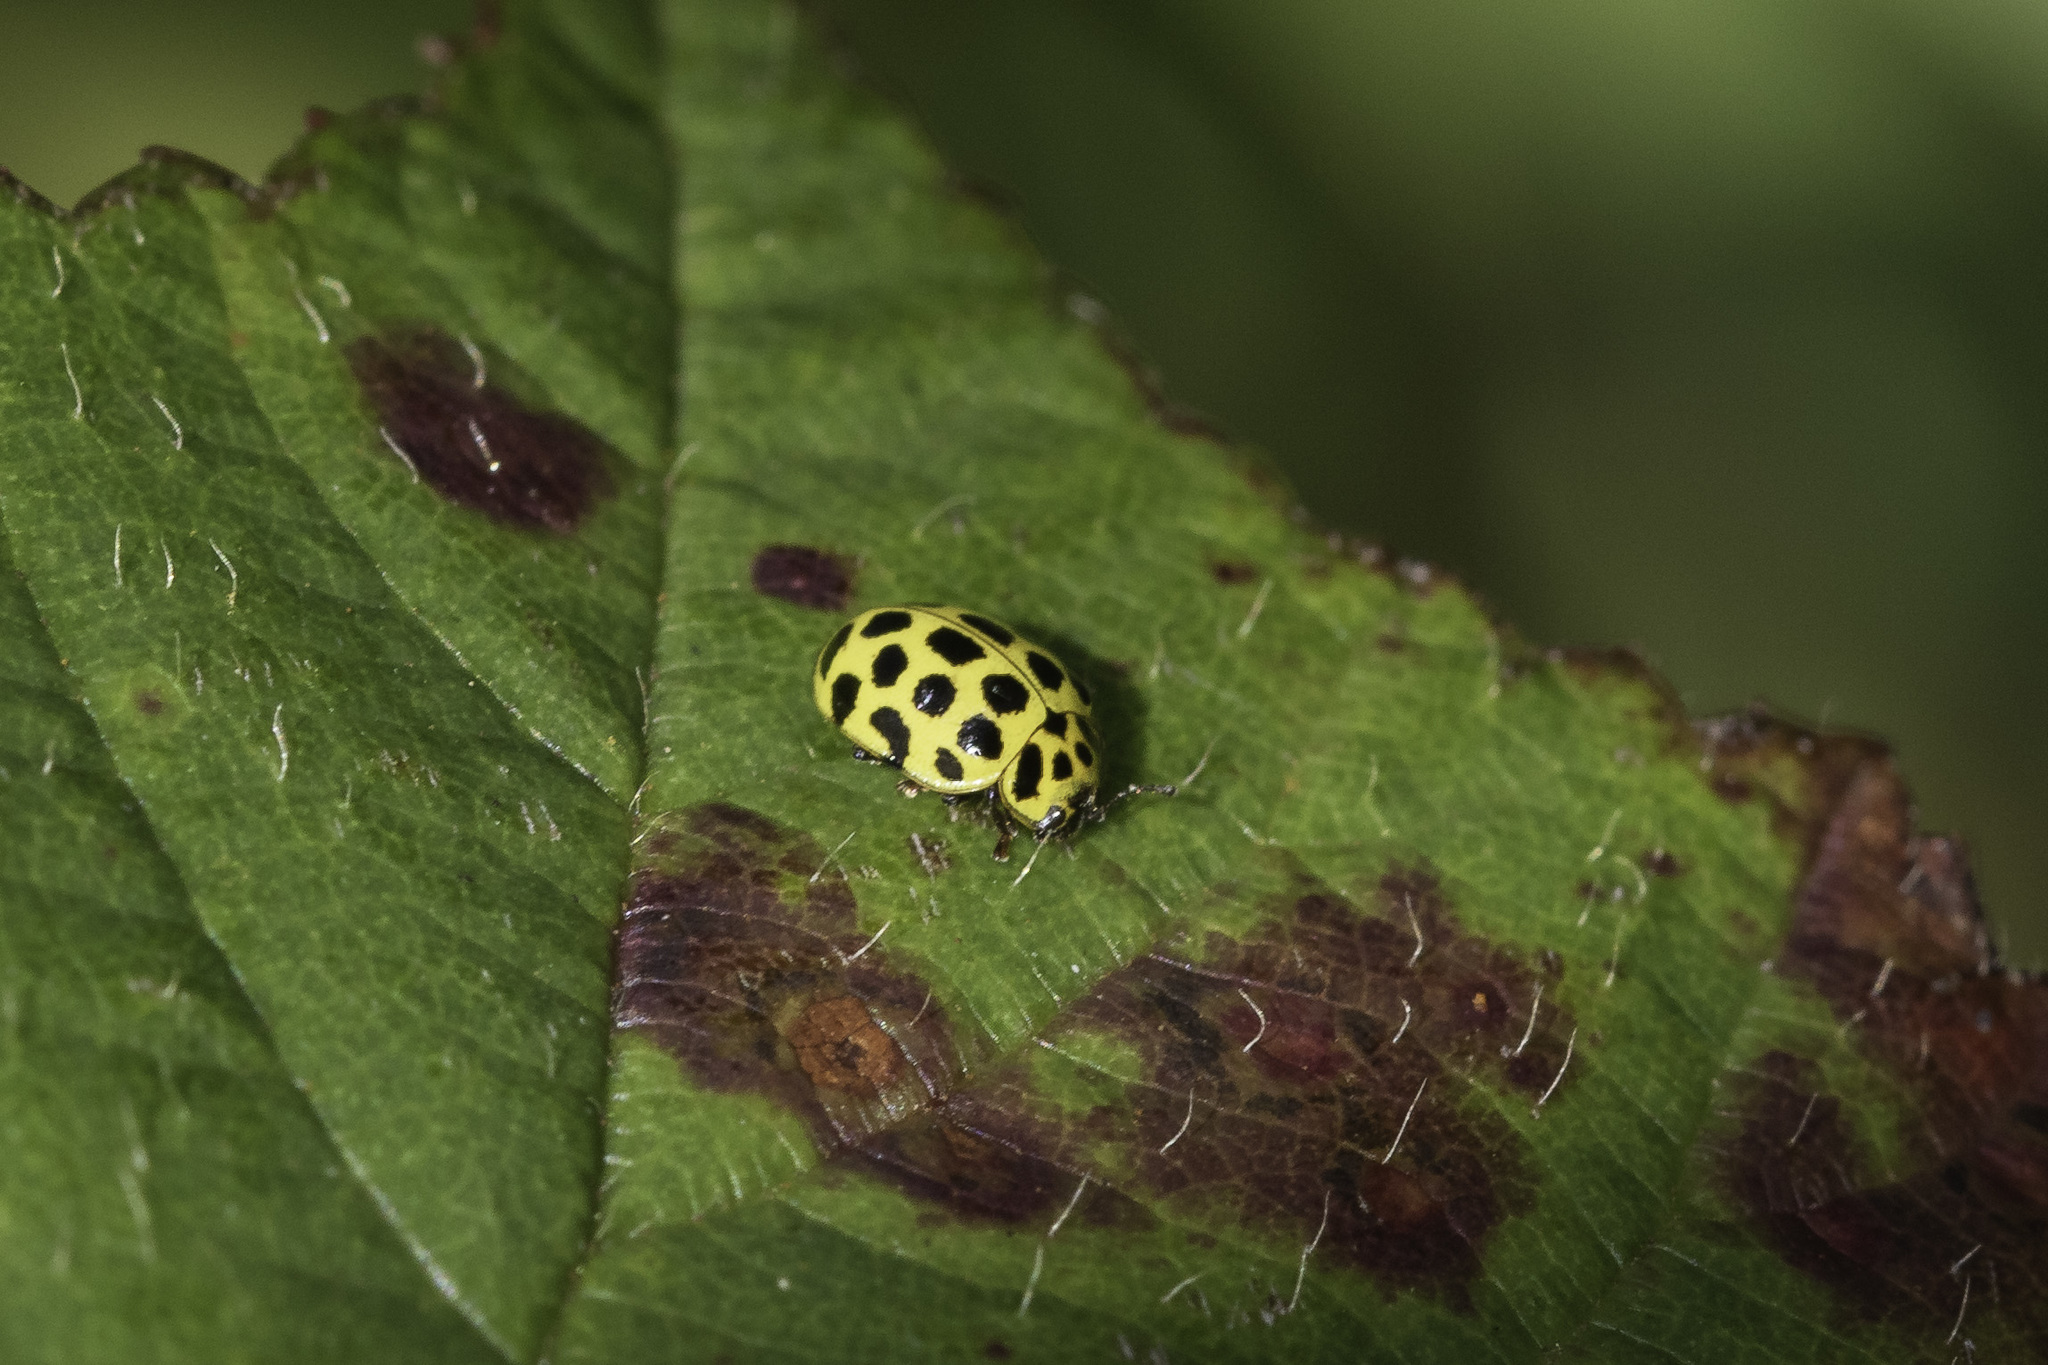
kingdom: Animalia
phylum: Arthropoda
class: Insecta
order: Coleoptera
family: Coccinellidae
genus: Psyllobora
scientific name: Psyllobora vigintiduopunctata
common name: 22-spot ladybird
